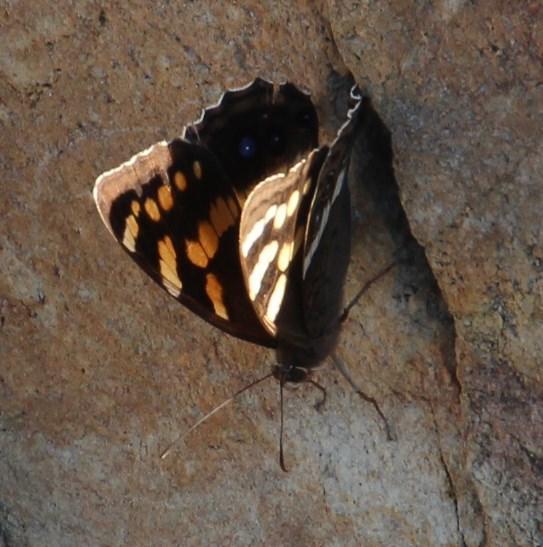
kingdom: Animalia
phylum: Arthropoda
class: Insecta
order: Lepidoptera
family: Nymphalidae
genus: Meneris
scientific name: Meneris Aeropetes tulbaghia
